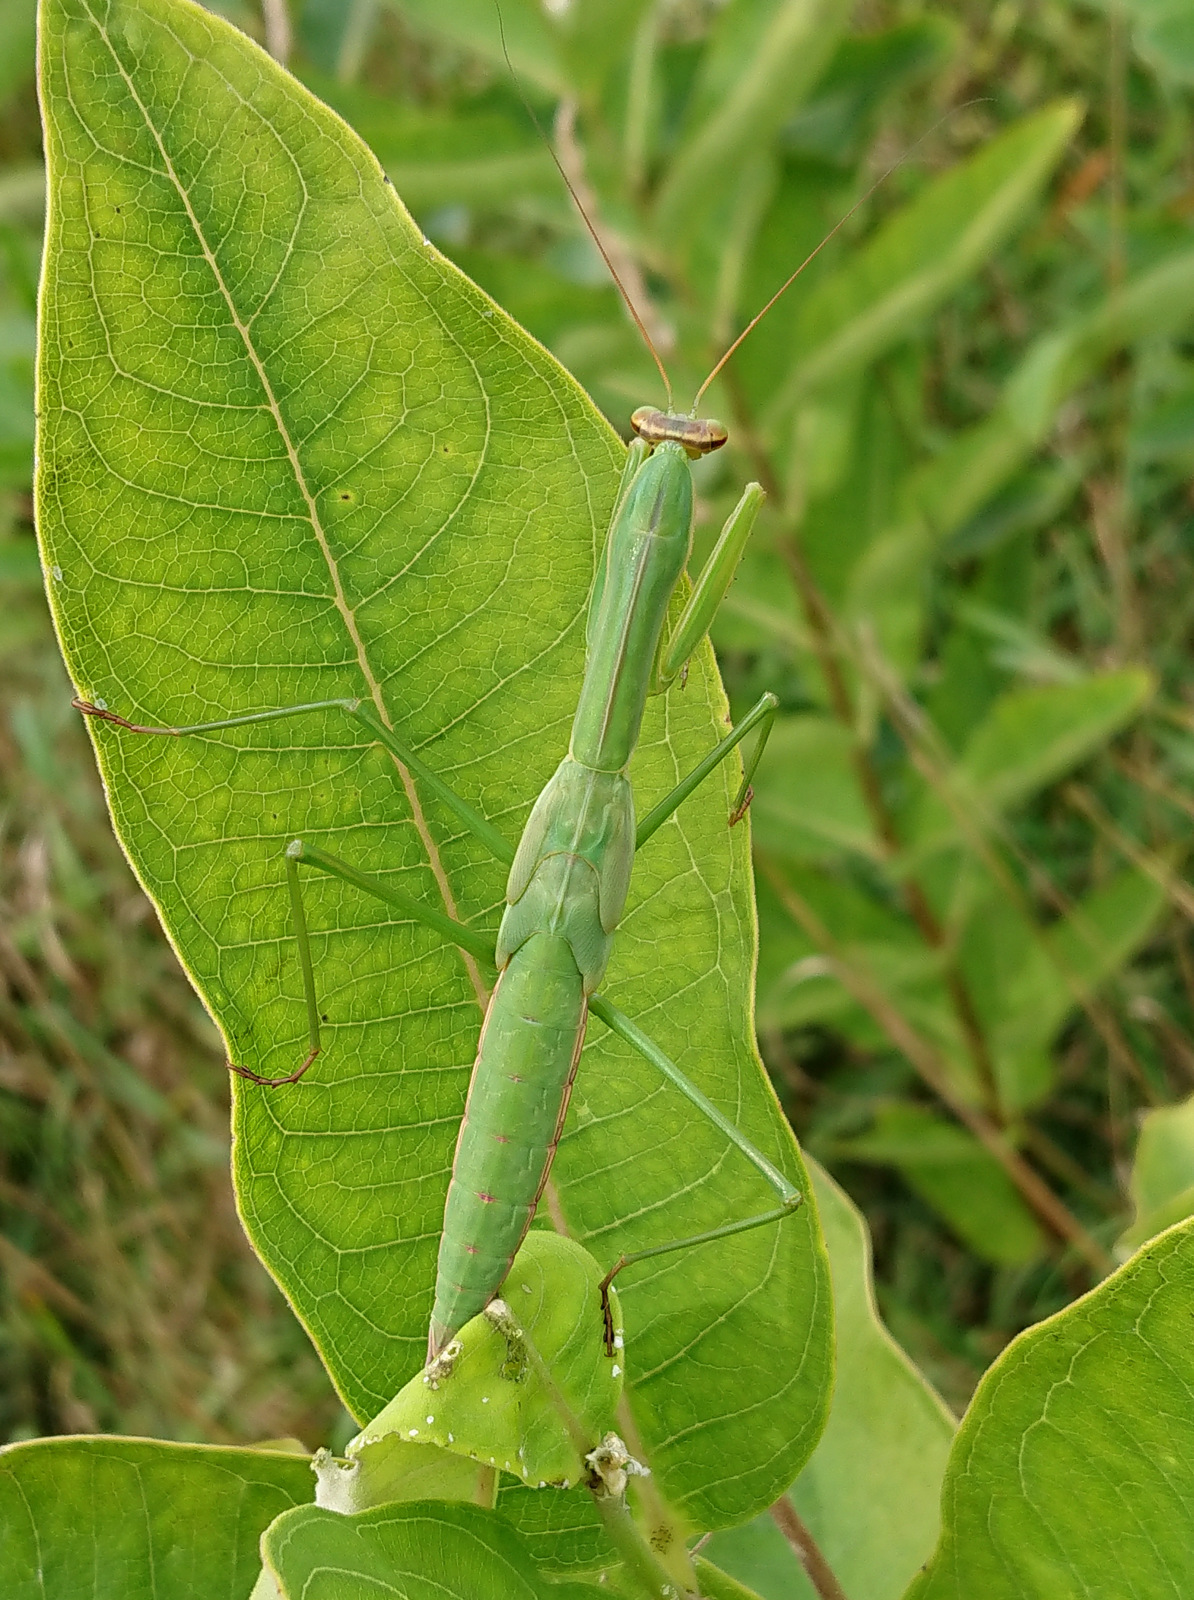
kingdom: Animalia
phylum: Arthropoda
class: Insecta
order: Mantodea
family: Mantidae
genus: Tenodera
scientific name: Tenodera sinensis
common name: Chinese mantis
